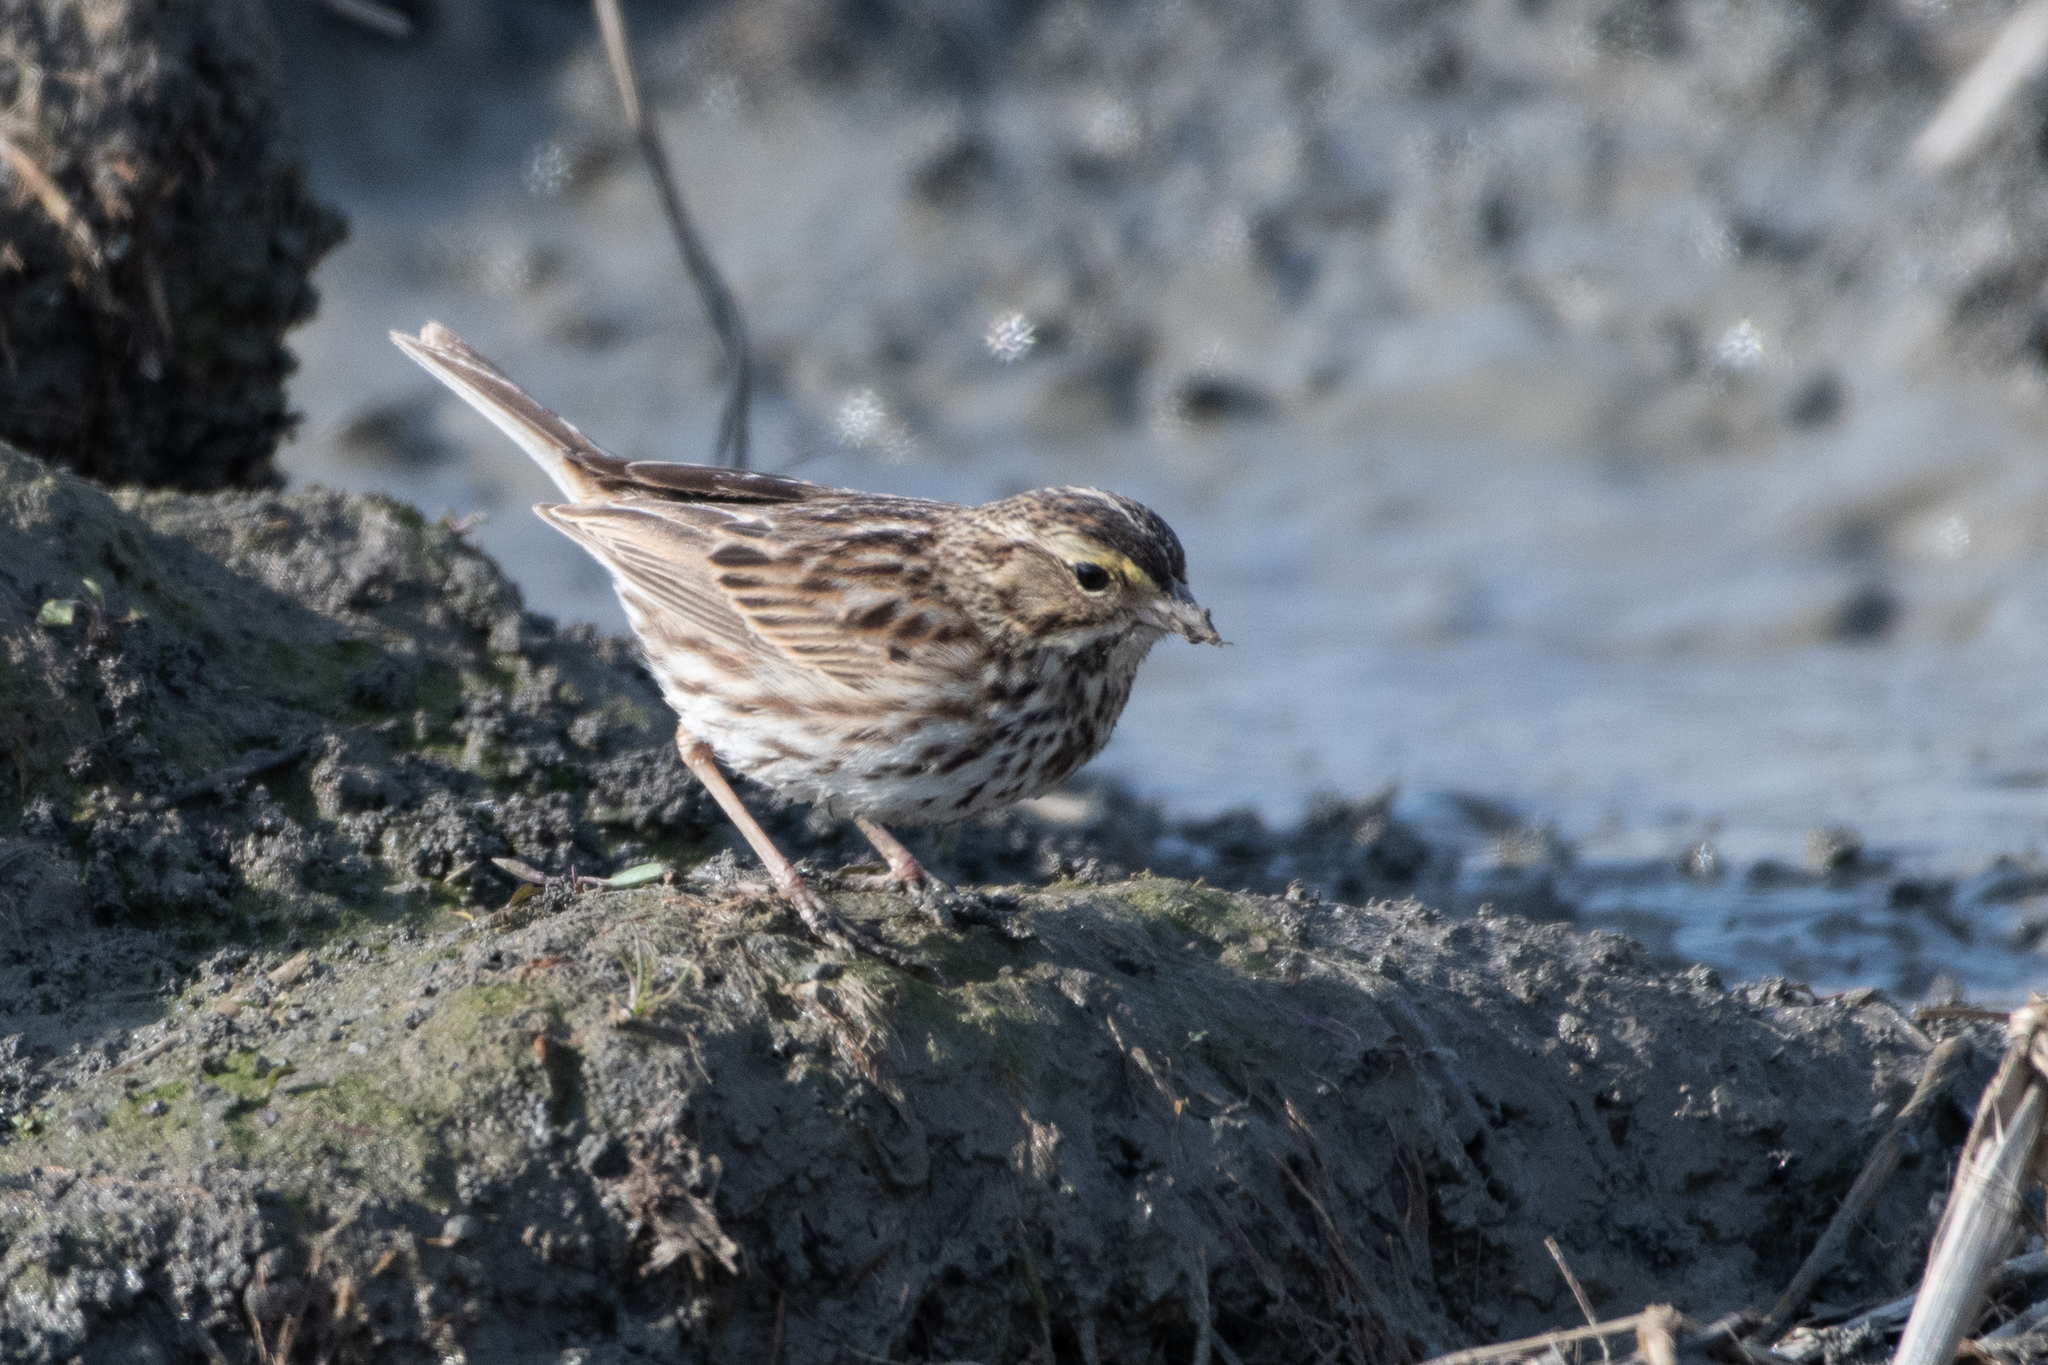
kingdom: Animalia
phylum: Chordata
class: Aves
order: Passeriformes
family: Passerellidae
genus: Passerculus
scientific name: Passerculus sandwichensis
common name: Savannah sparrow
